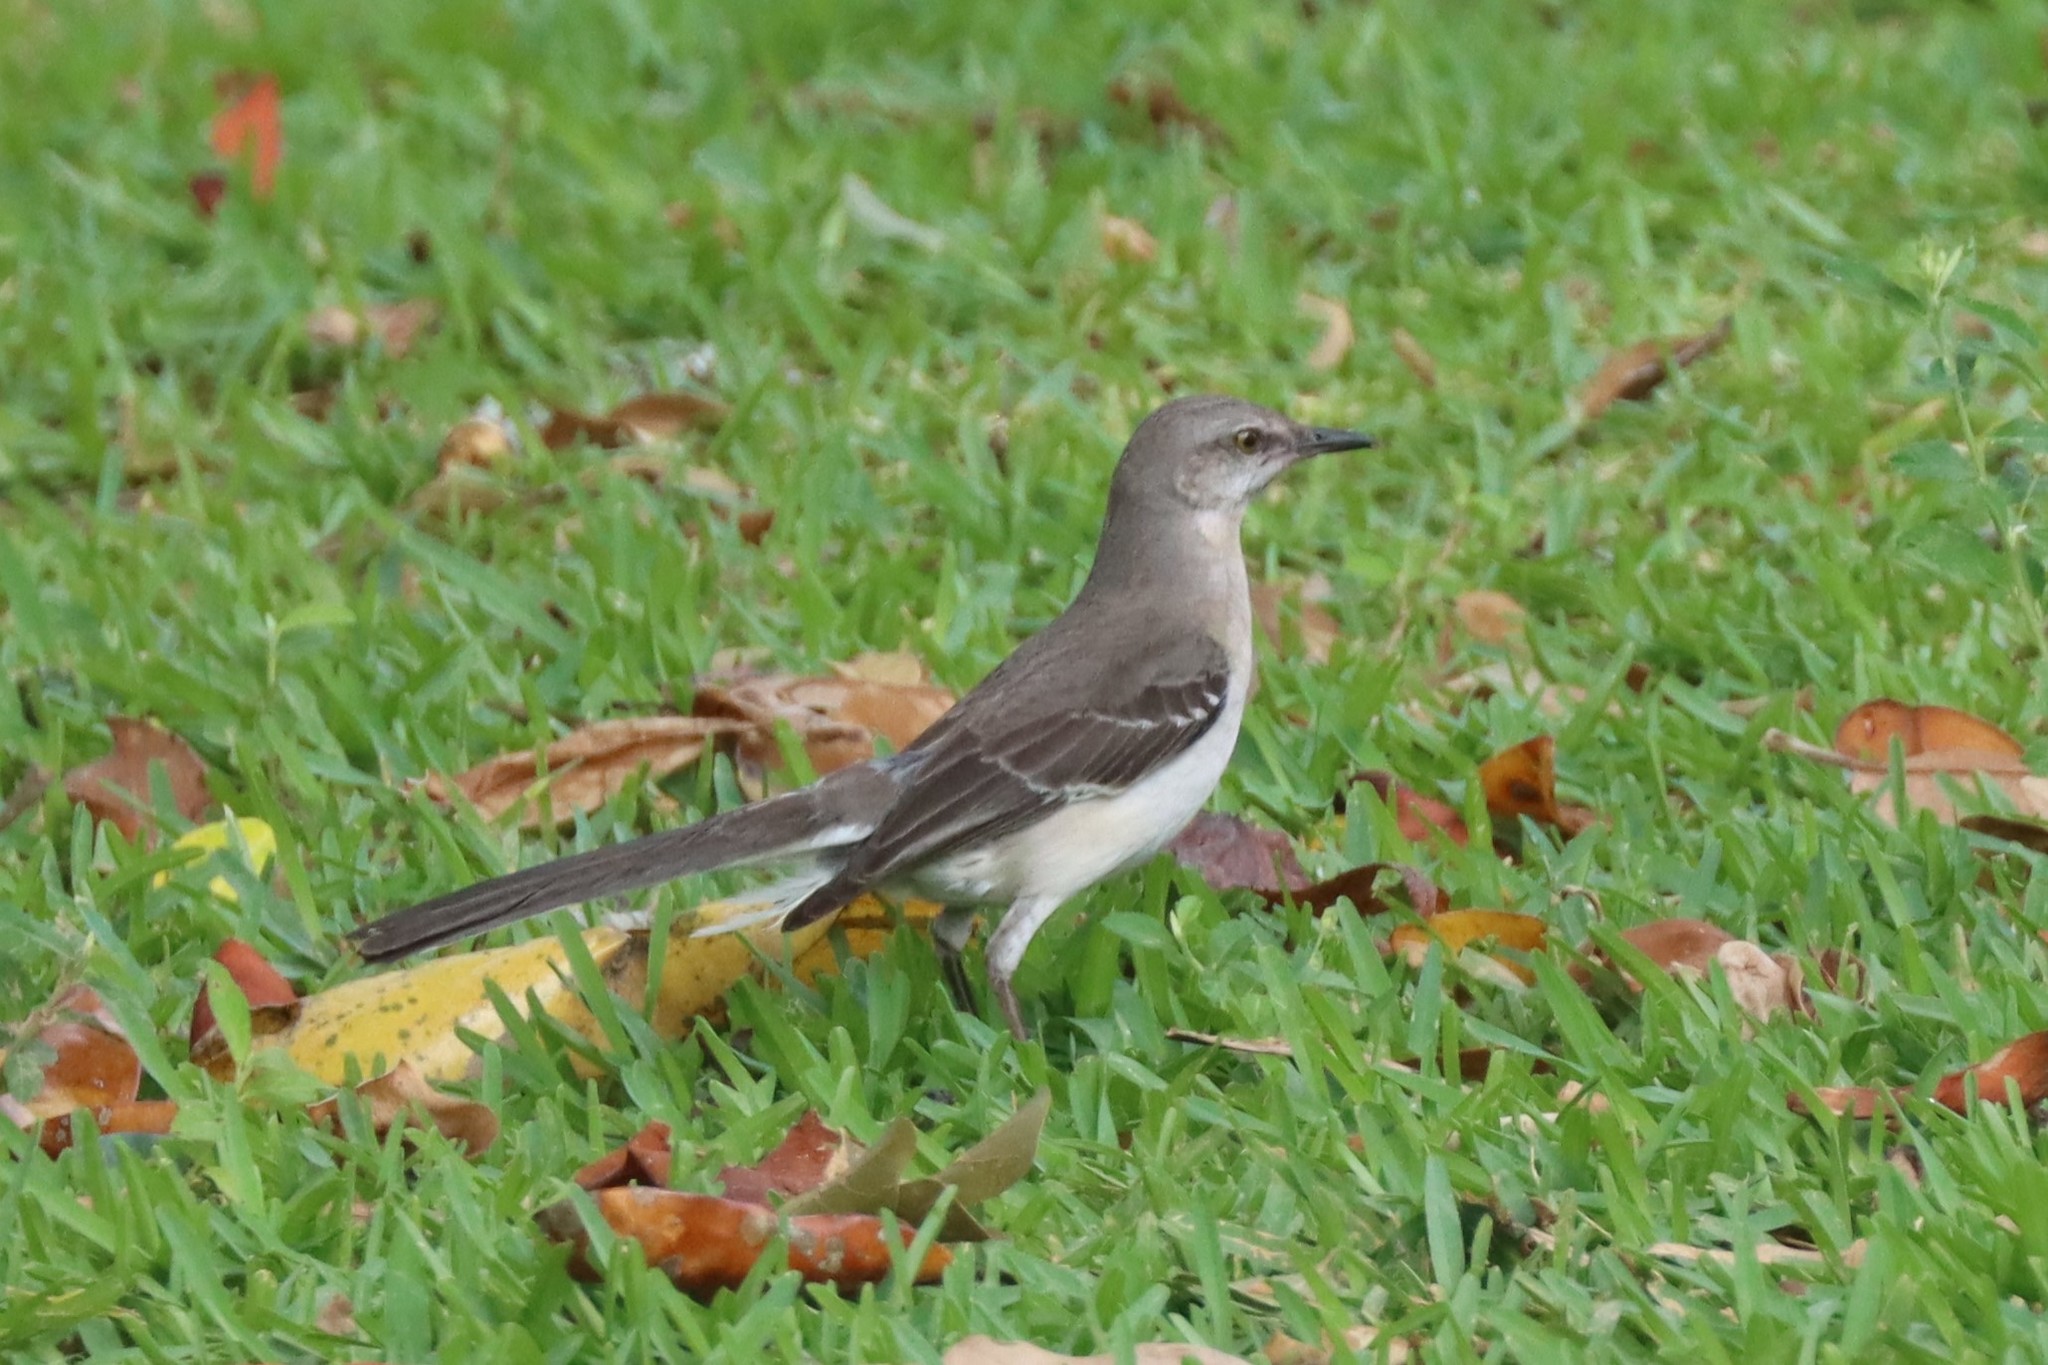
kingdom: Animalia
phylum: Chordata
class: Aves
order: Passeriformes
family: Mimidae
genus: Mimus
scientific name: Mimus polyglottos
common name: Northern mockingbird
